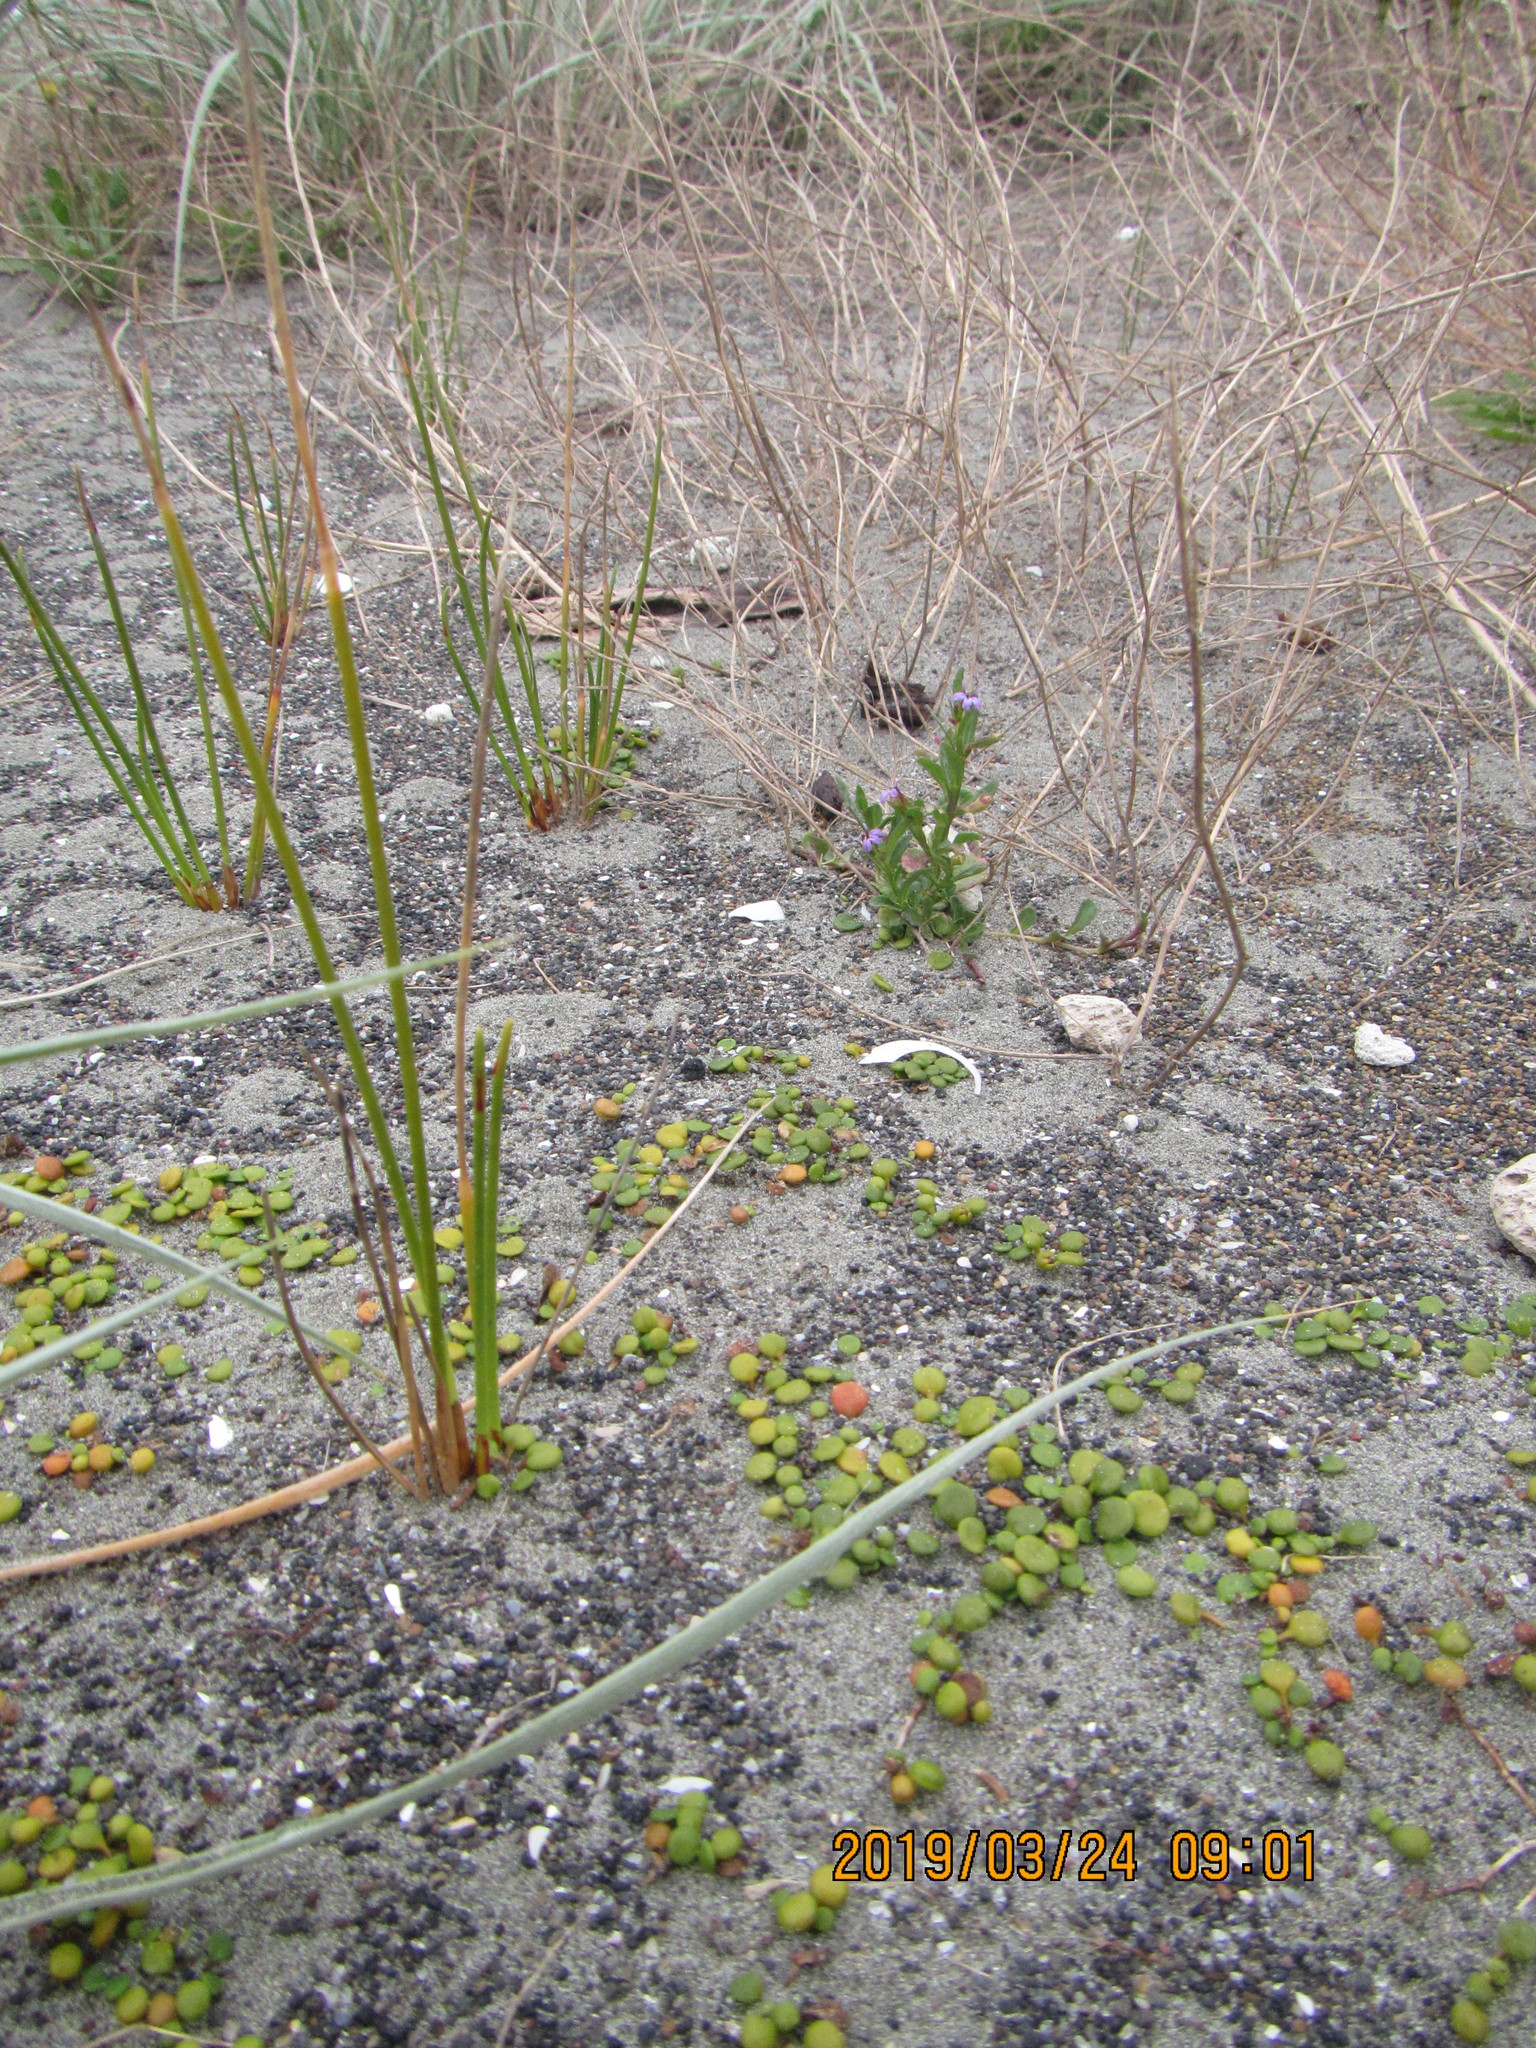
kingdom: Plantae
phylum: Tracheophyta
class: Magnoliopsida
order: Asterales
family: Campanulaceae
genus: Lobelia
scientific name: Lobelia anceps
